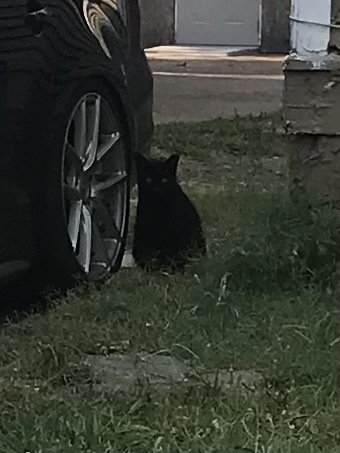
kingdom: Animalia
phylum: Chordata
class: Mammalia
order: Carnivora
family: Felidae
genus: Felis
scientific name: Felis catus
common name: Domestic cat
